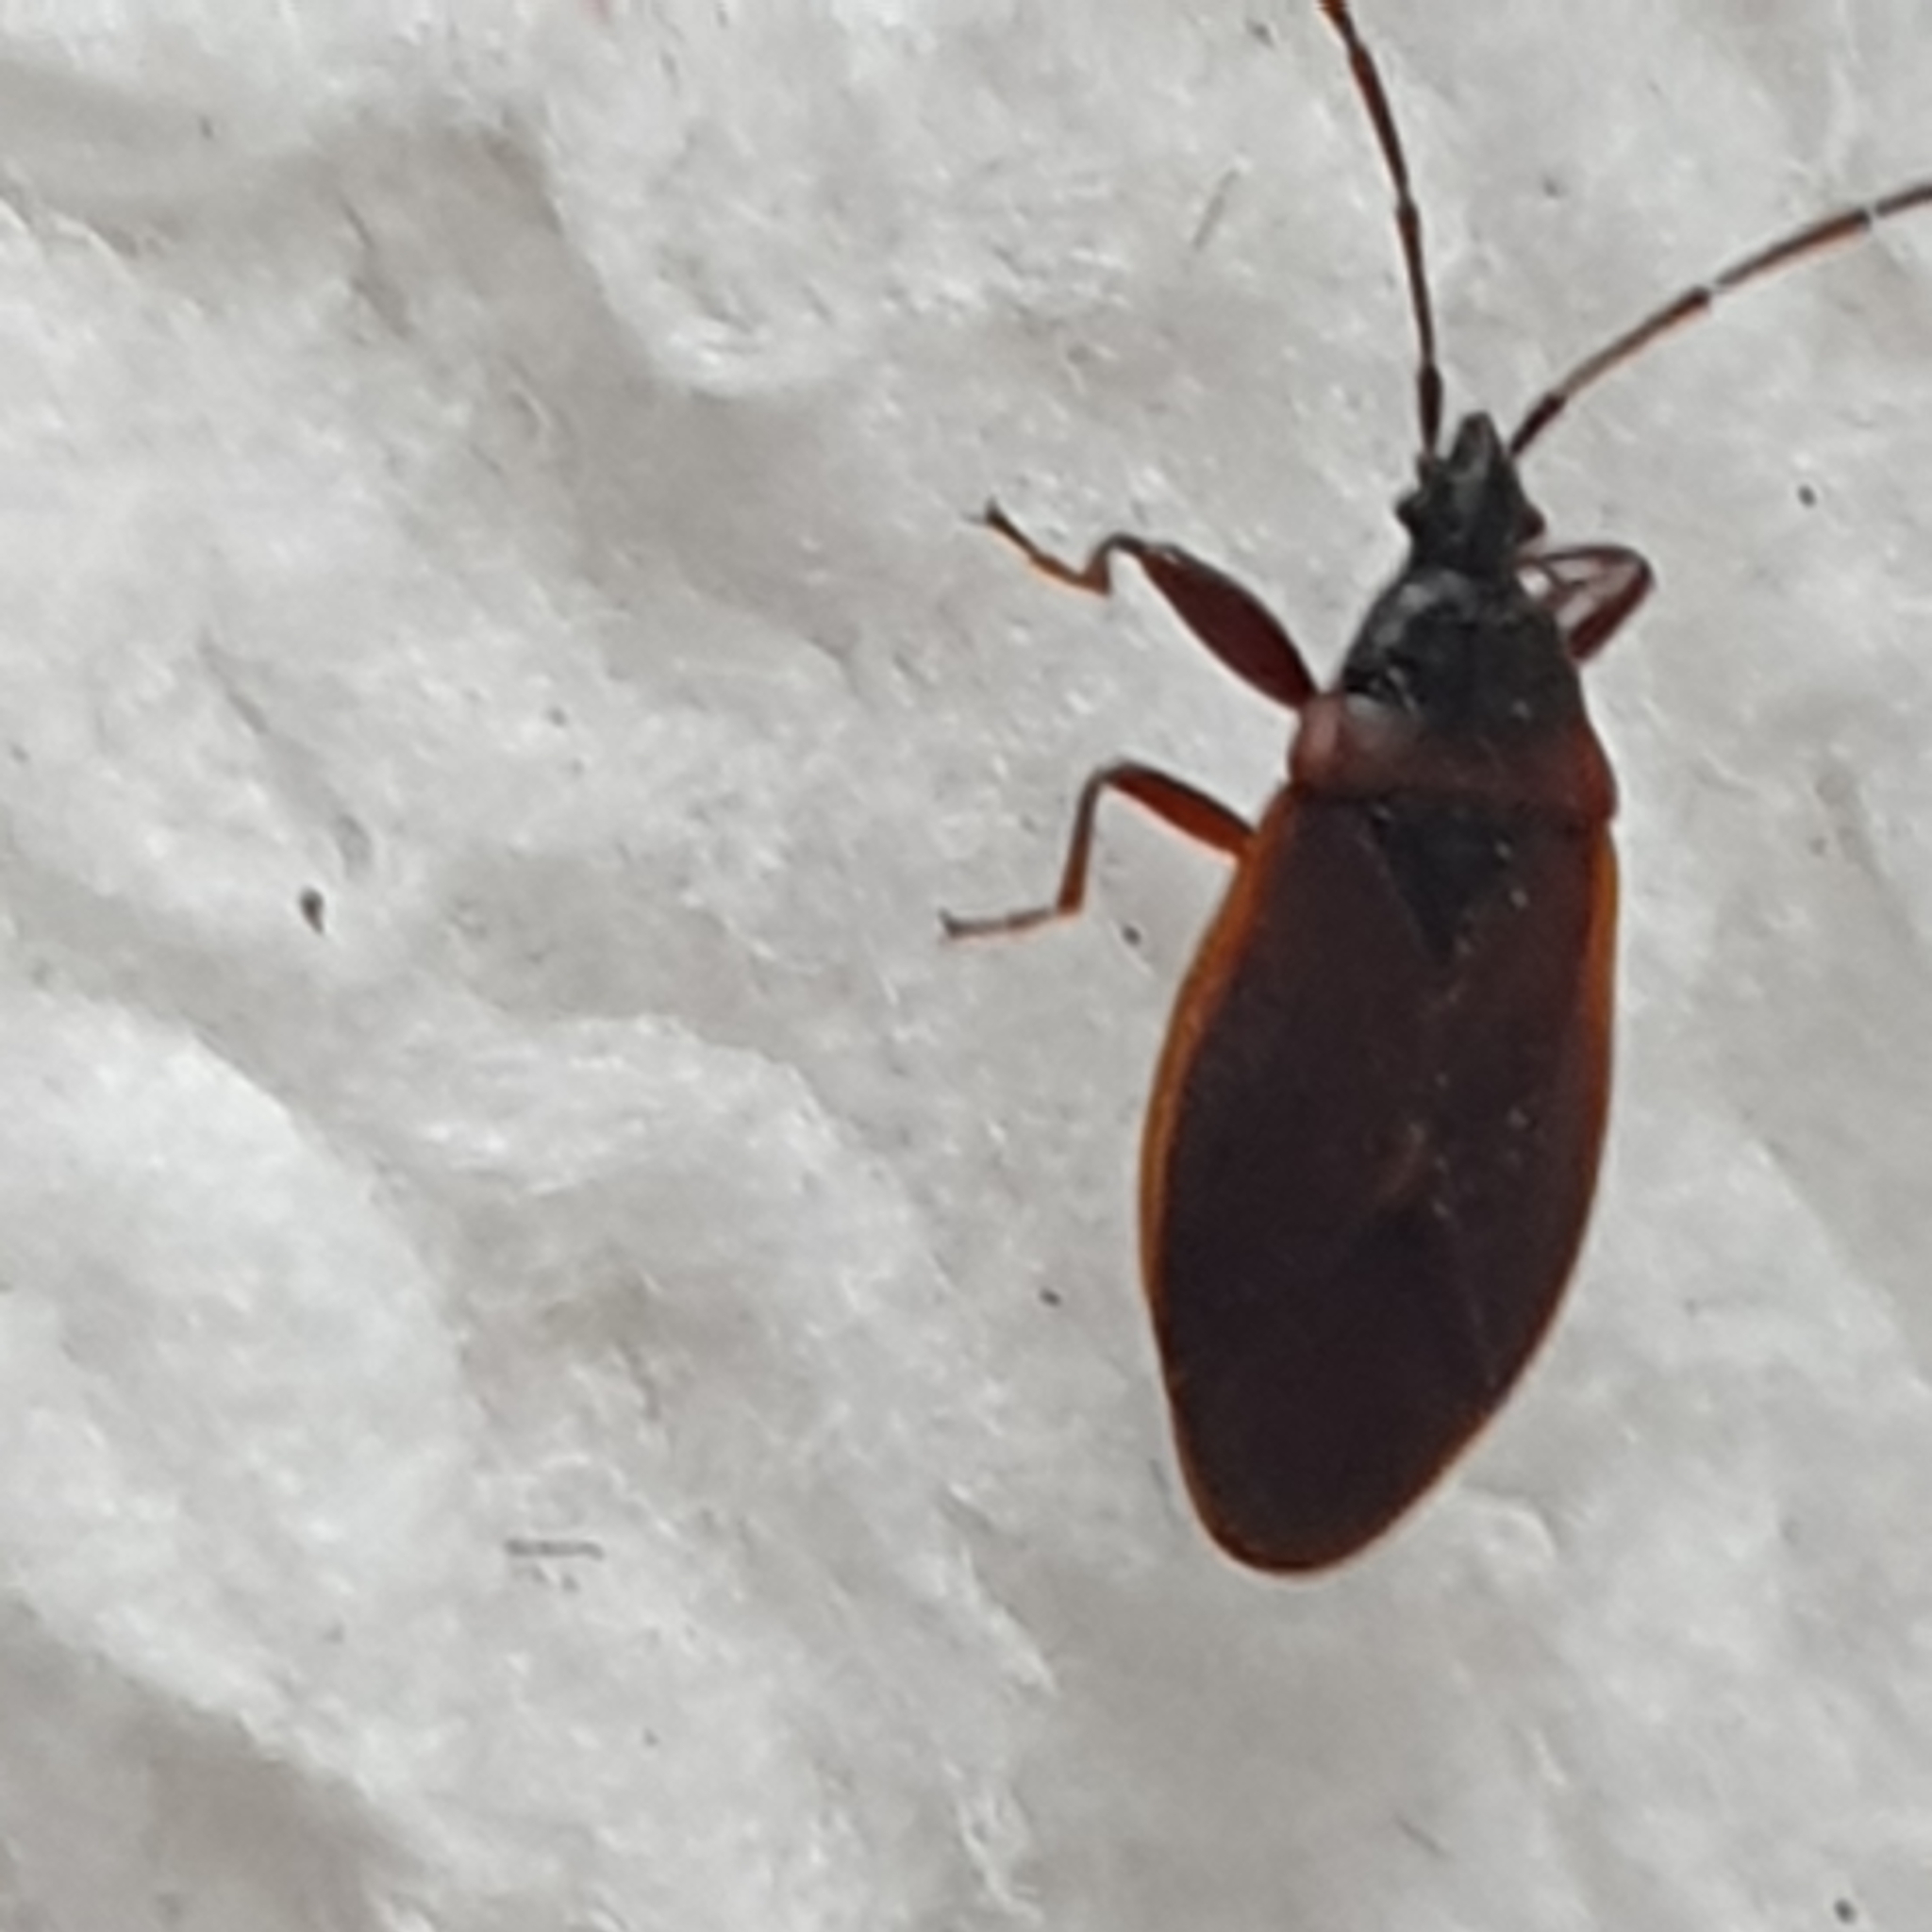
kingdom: Animalia
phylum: Arthropoda
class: Insecta
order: Hemiptera
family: Rhyparochromidae
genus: Gastrodes
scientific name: Gastrodes grossipes
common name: Pine cone bug
